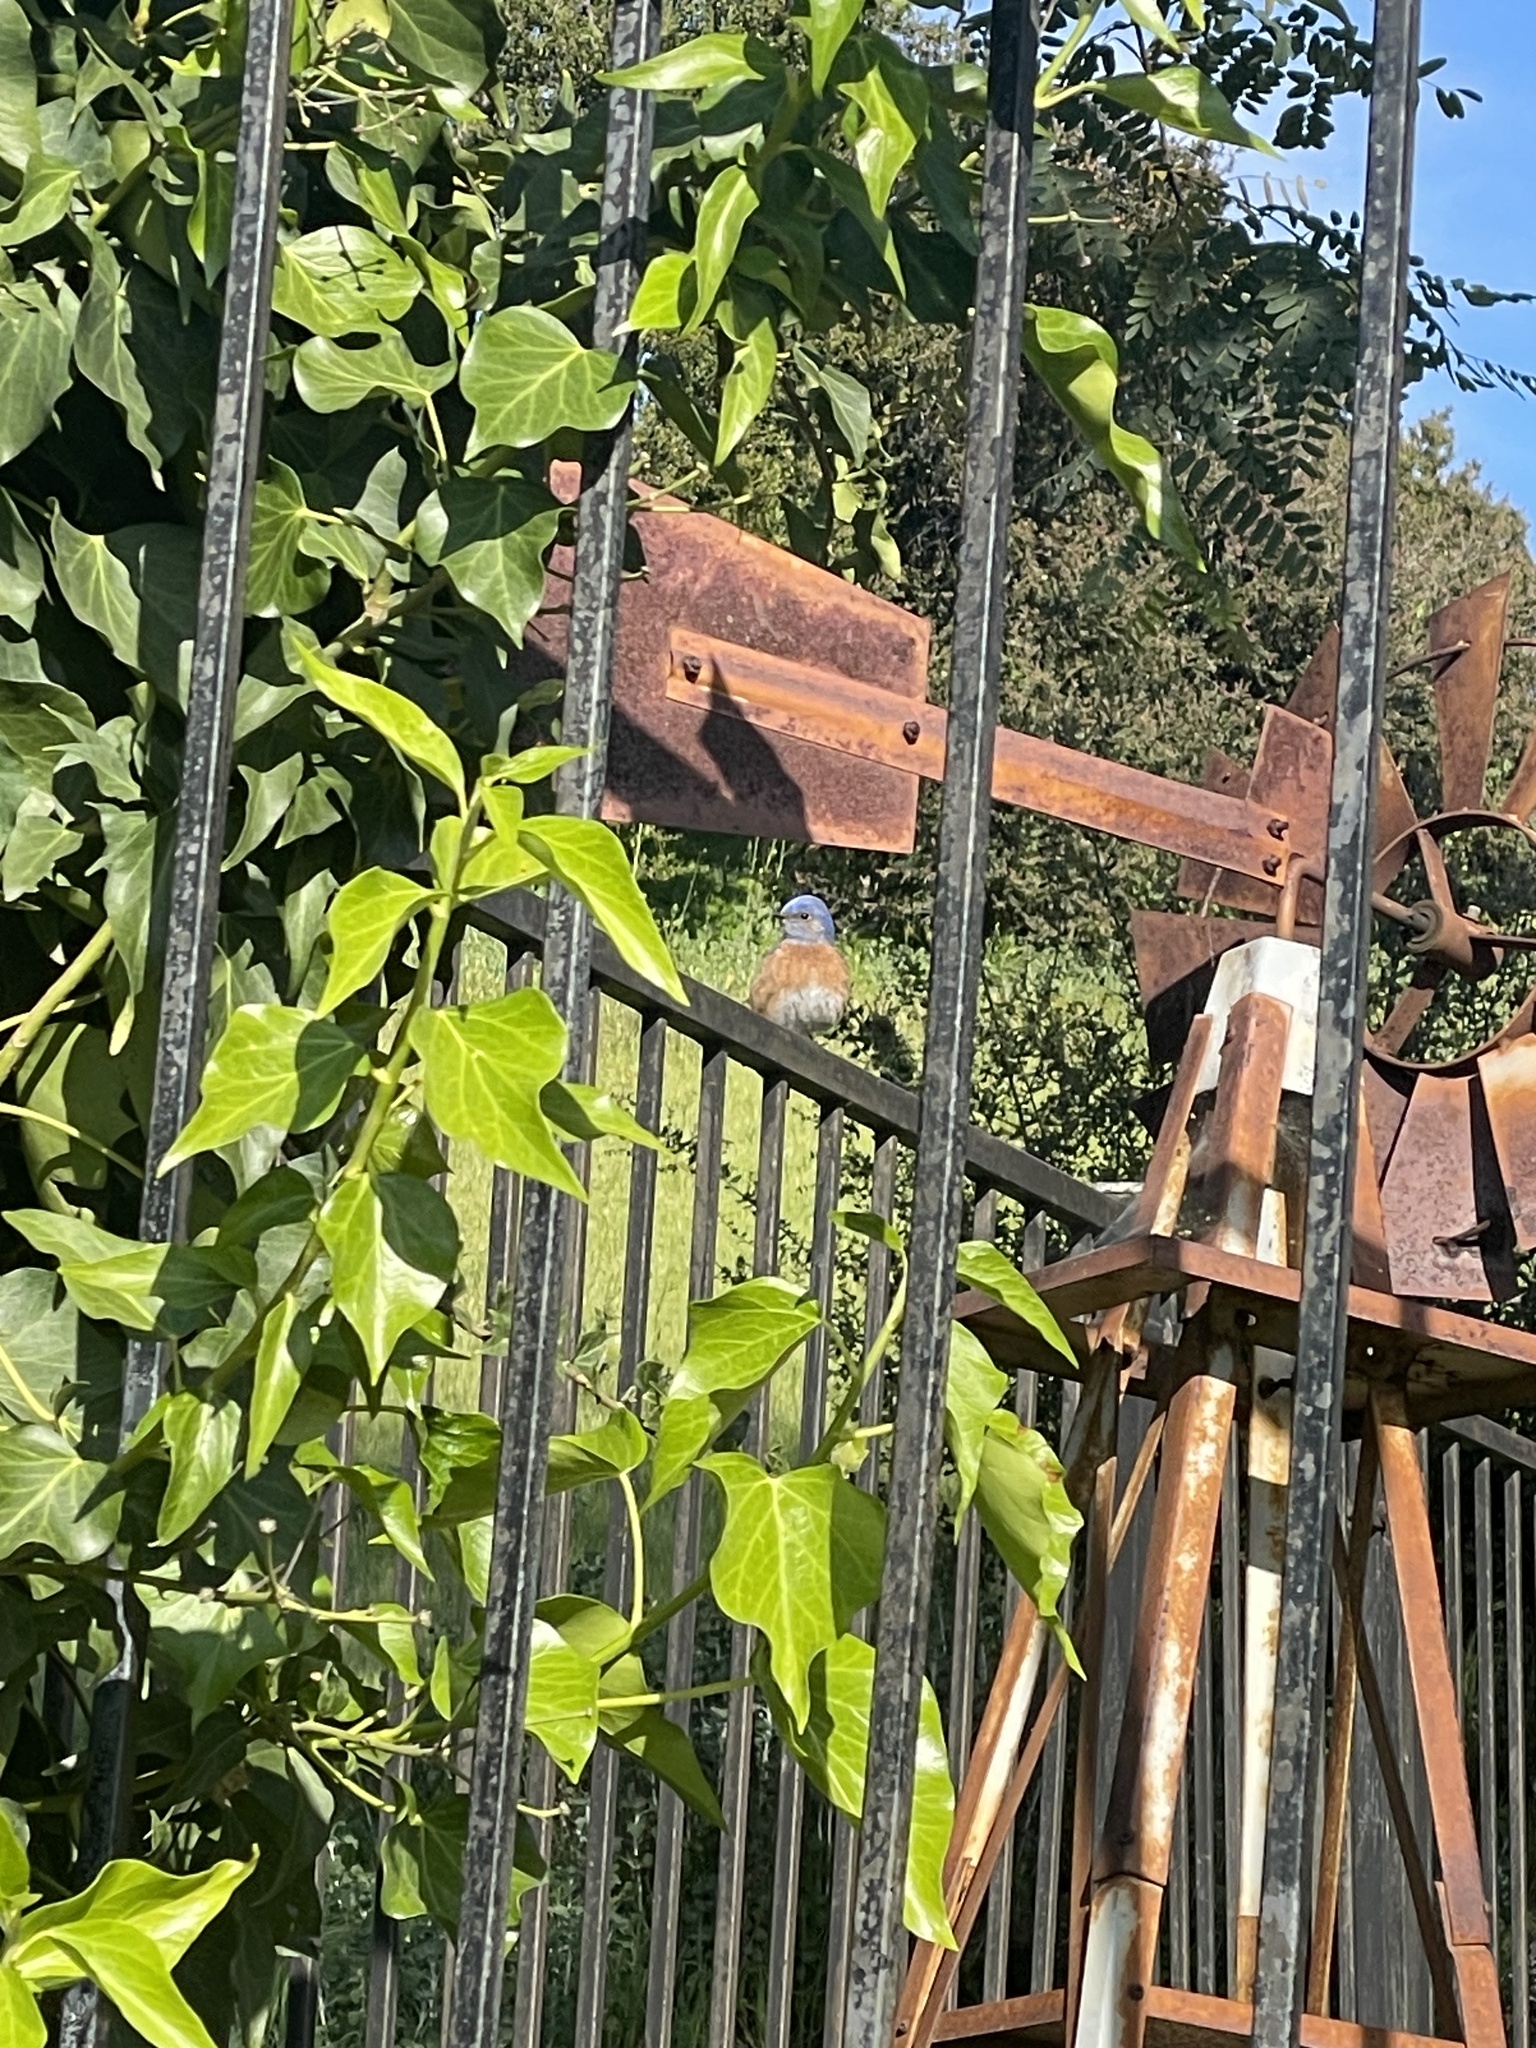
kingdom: Animalia
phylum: Chordata
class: Aves
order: Passeriformes
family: Turdidae
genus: Sialia
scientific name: Sialia mexicana
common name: Western bluebird
